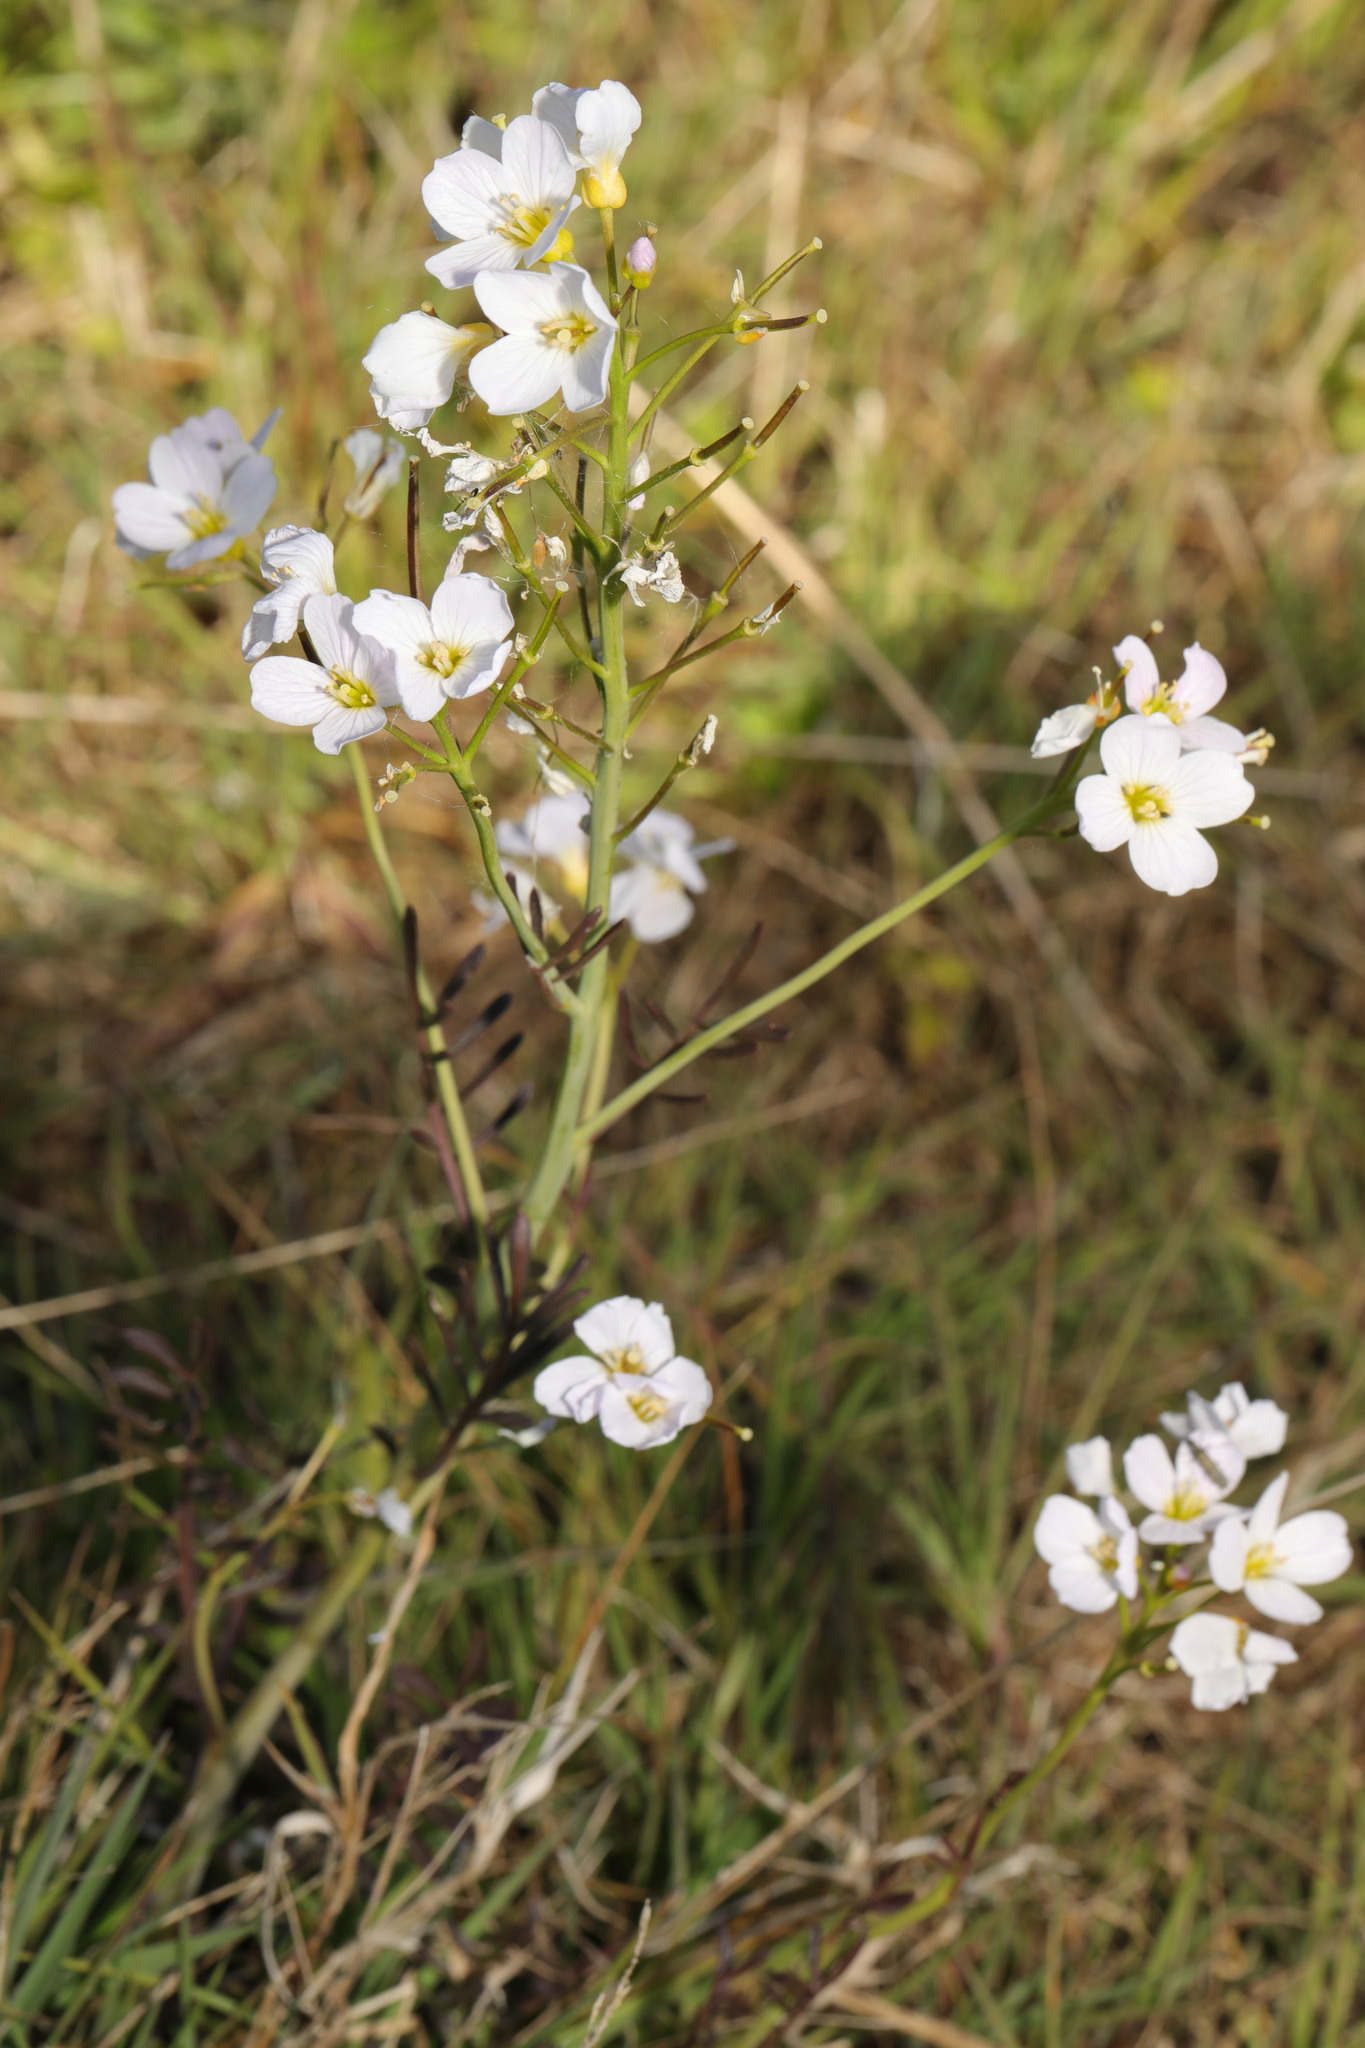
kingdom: Plantae
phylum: Tracheophyta
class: Magnoliopsida
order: Brassicales
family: Brassicaceae
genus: Cardamine
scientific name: Cardamine pratensis
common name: Cuckoo flower
